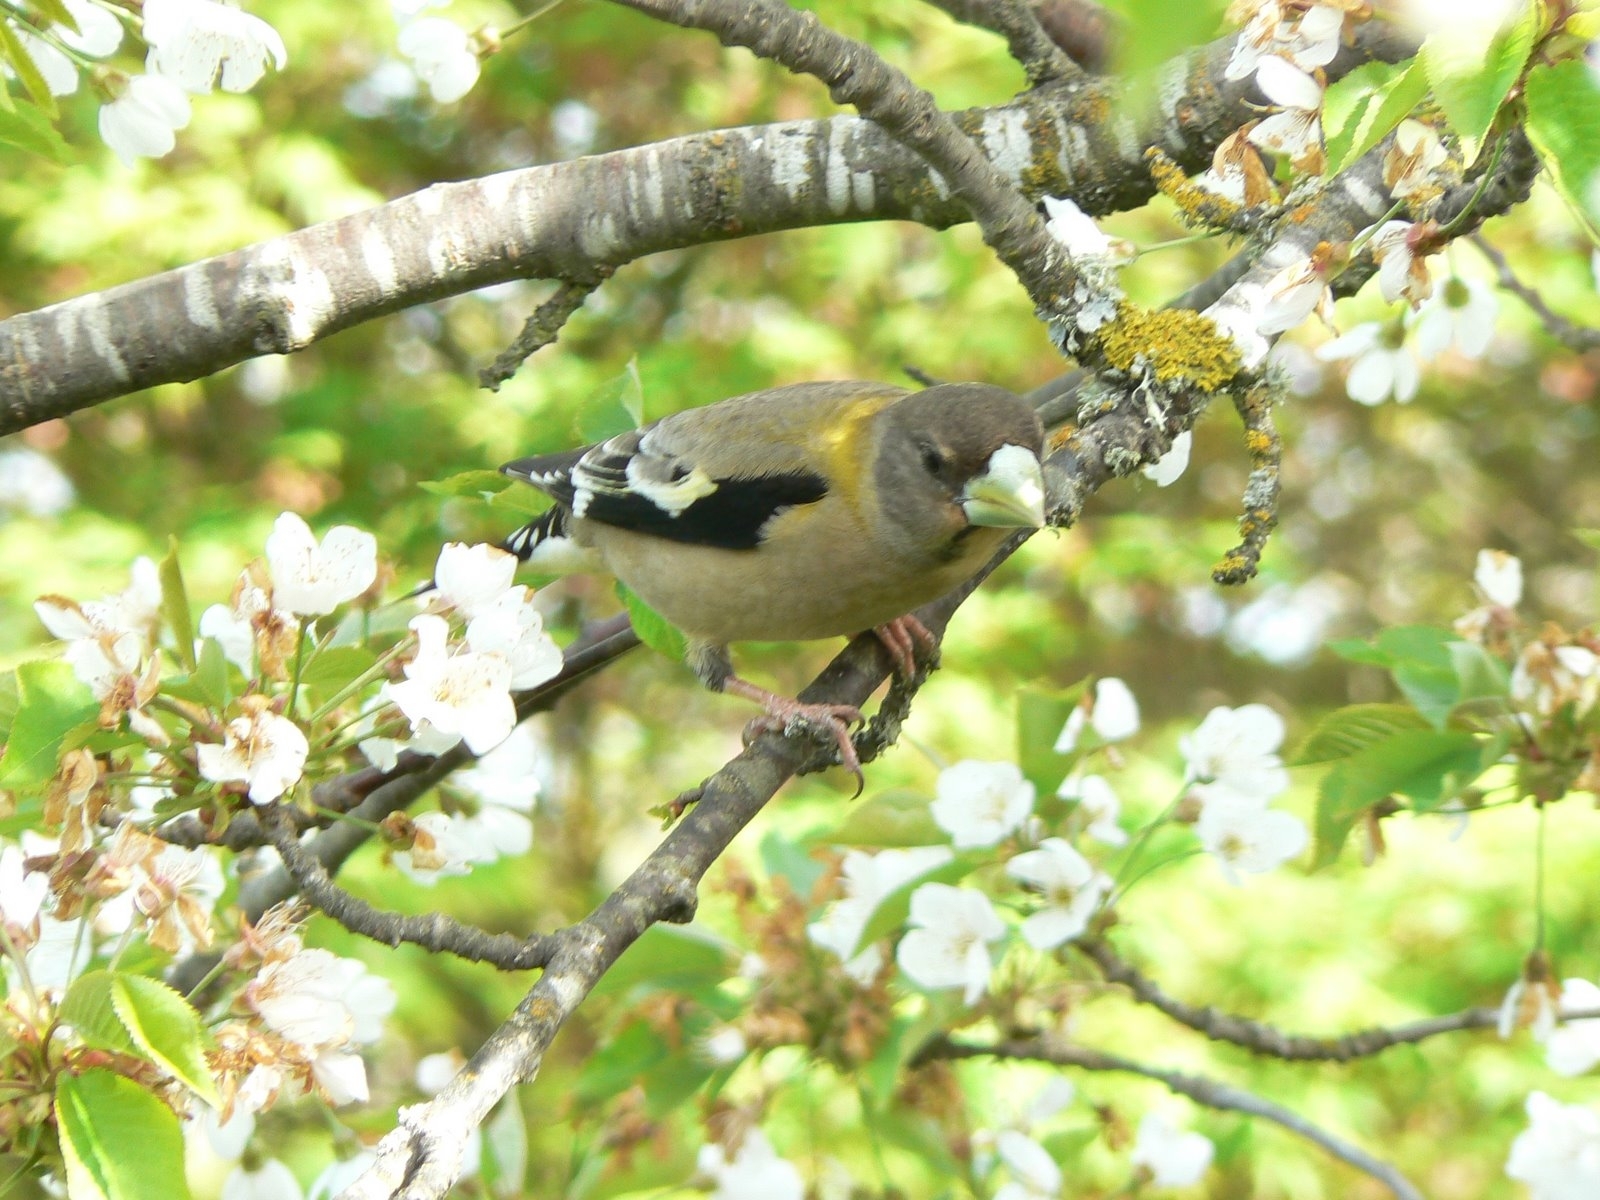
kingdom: Animalia
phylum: Chordata
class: Aves
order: Passeriformes
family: Fringillidae
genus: Hesperiphona
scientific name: Hesperiphona vespertina
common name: Evening grosbeak
